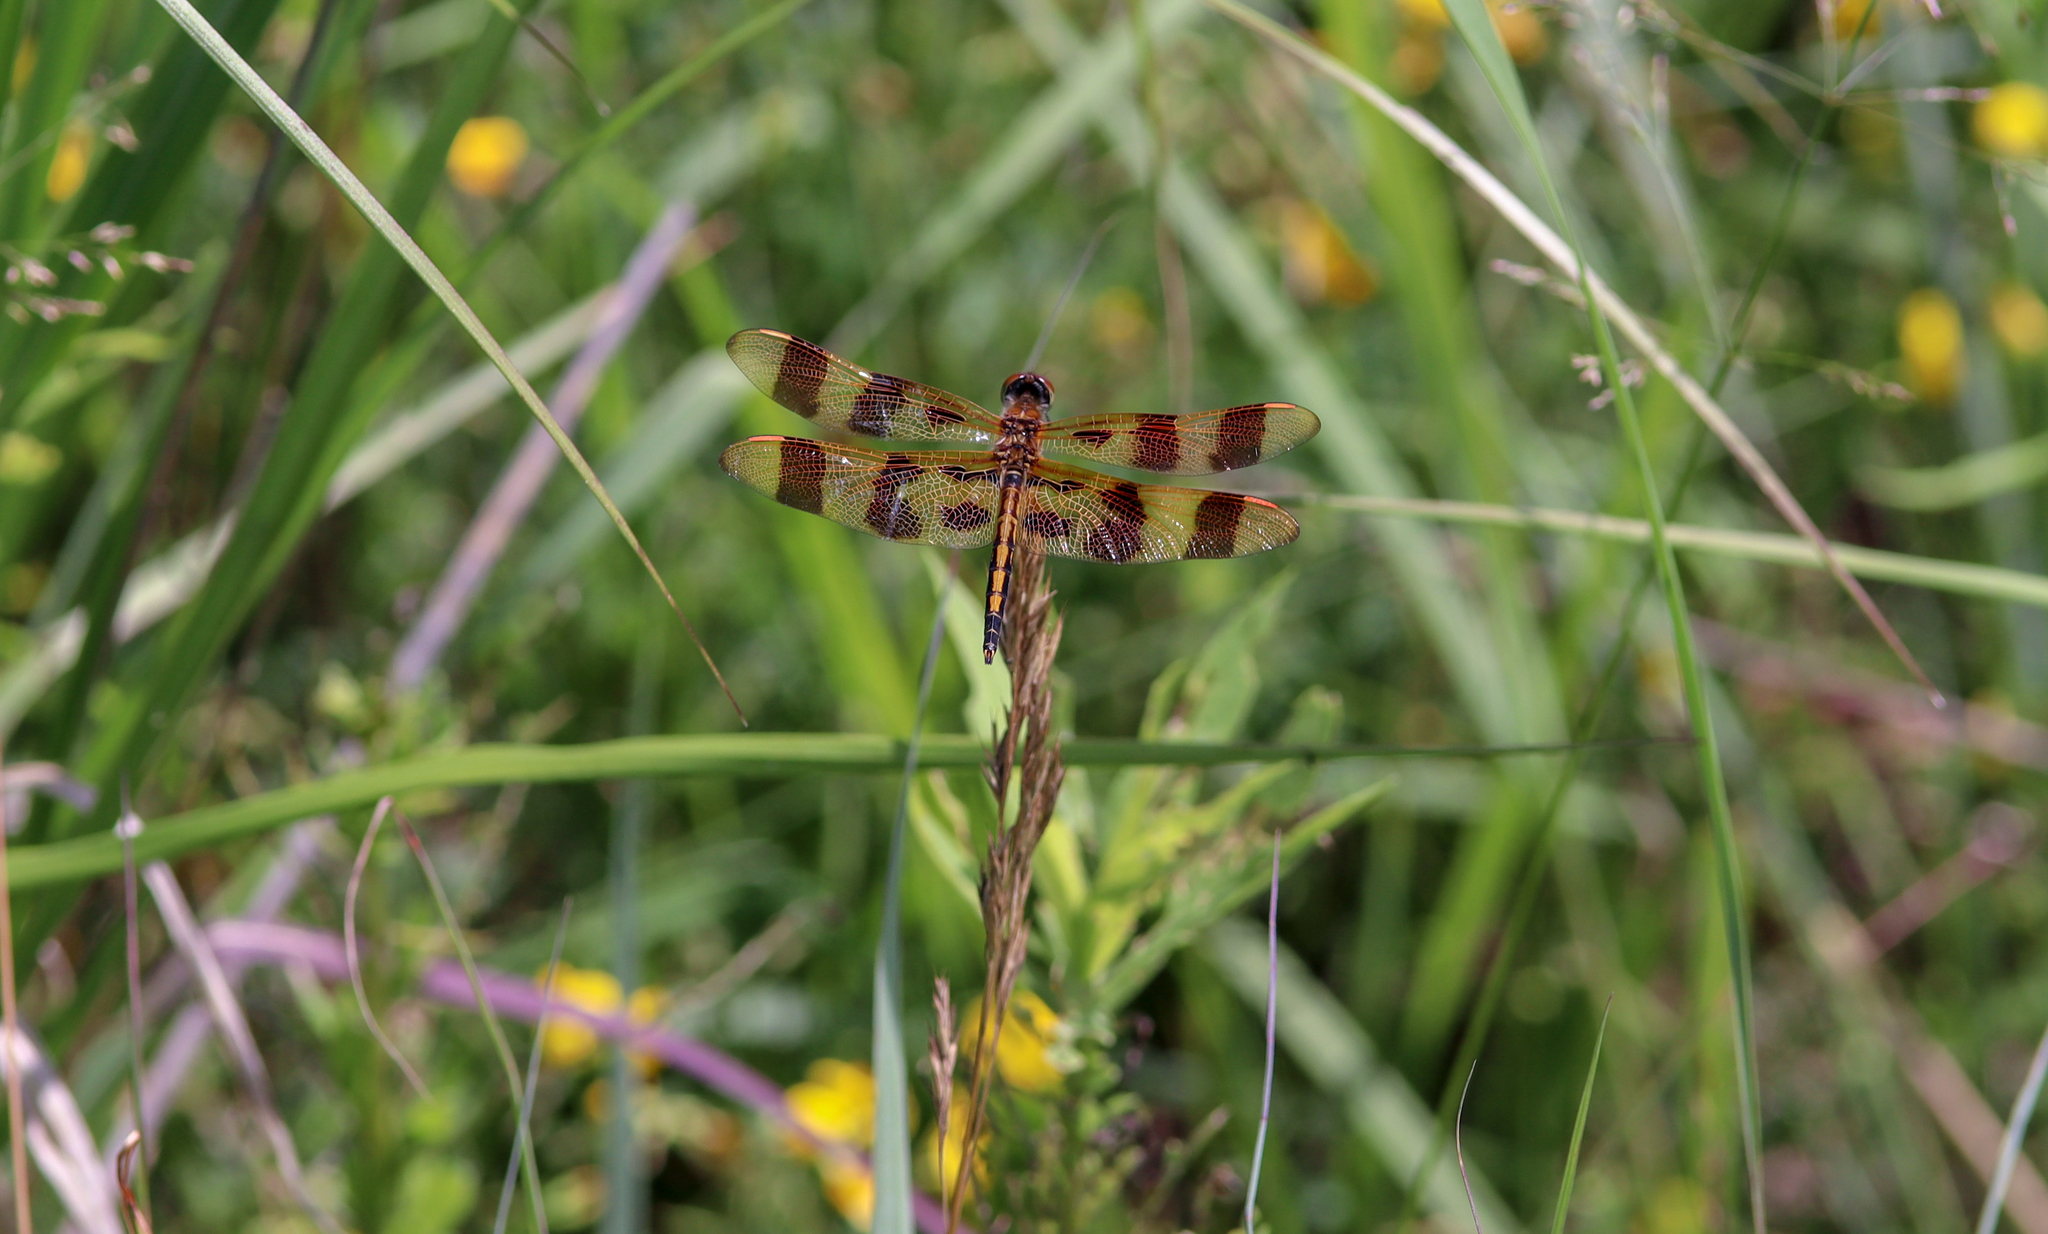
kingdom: Animalia
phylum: Arthropoda
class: Insecta
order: Odonata
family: Libellulidae
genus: Celithemis
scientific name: Celithemis eponina
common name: Halloween pennant
